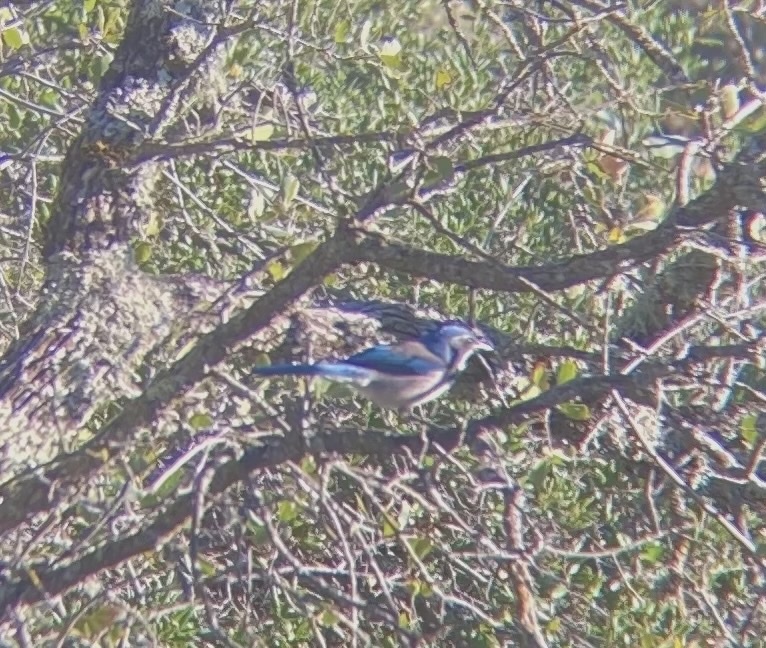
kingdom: Animalia
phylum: Chordata
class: Aves
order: Passeriformes
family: Corvidae
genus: Aphelocoma
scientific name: Aphelocoma californica
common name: California scrub-jay
